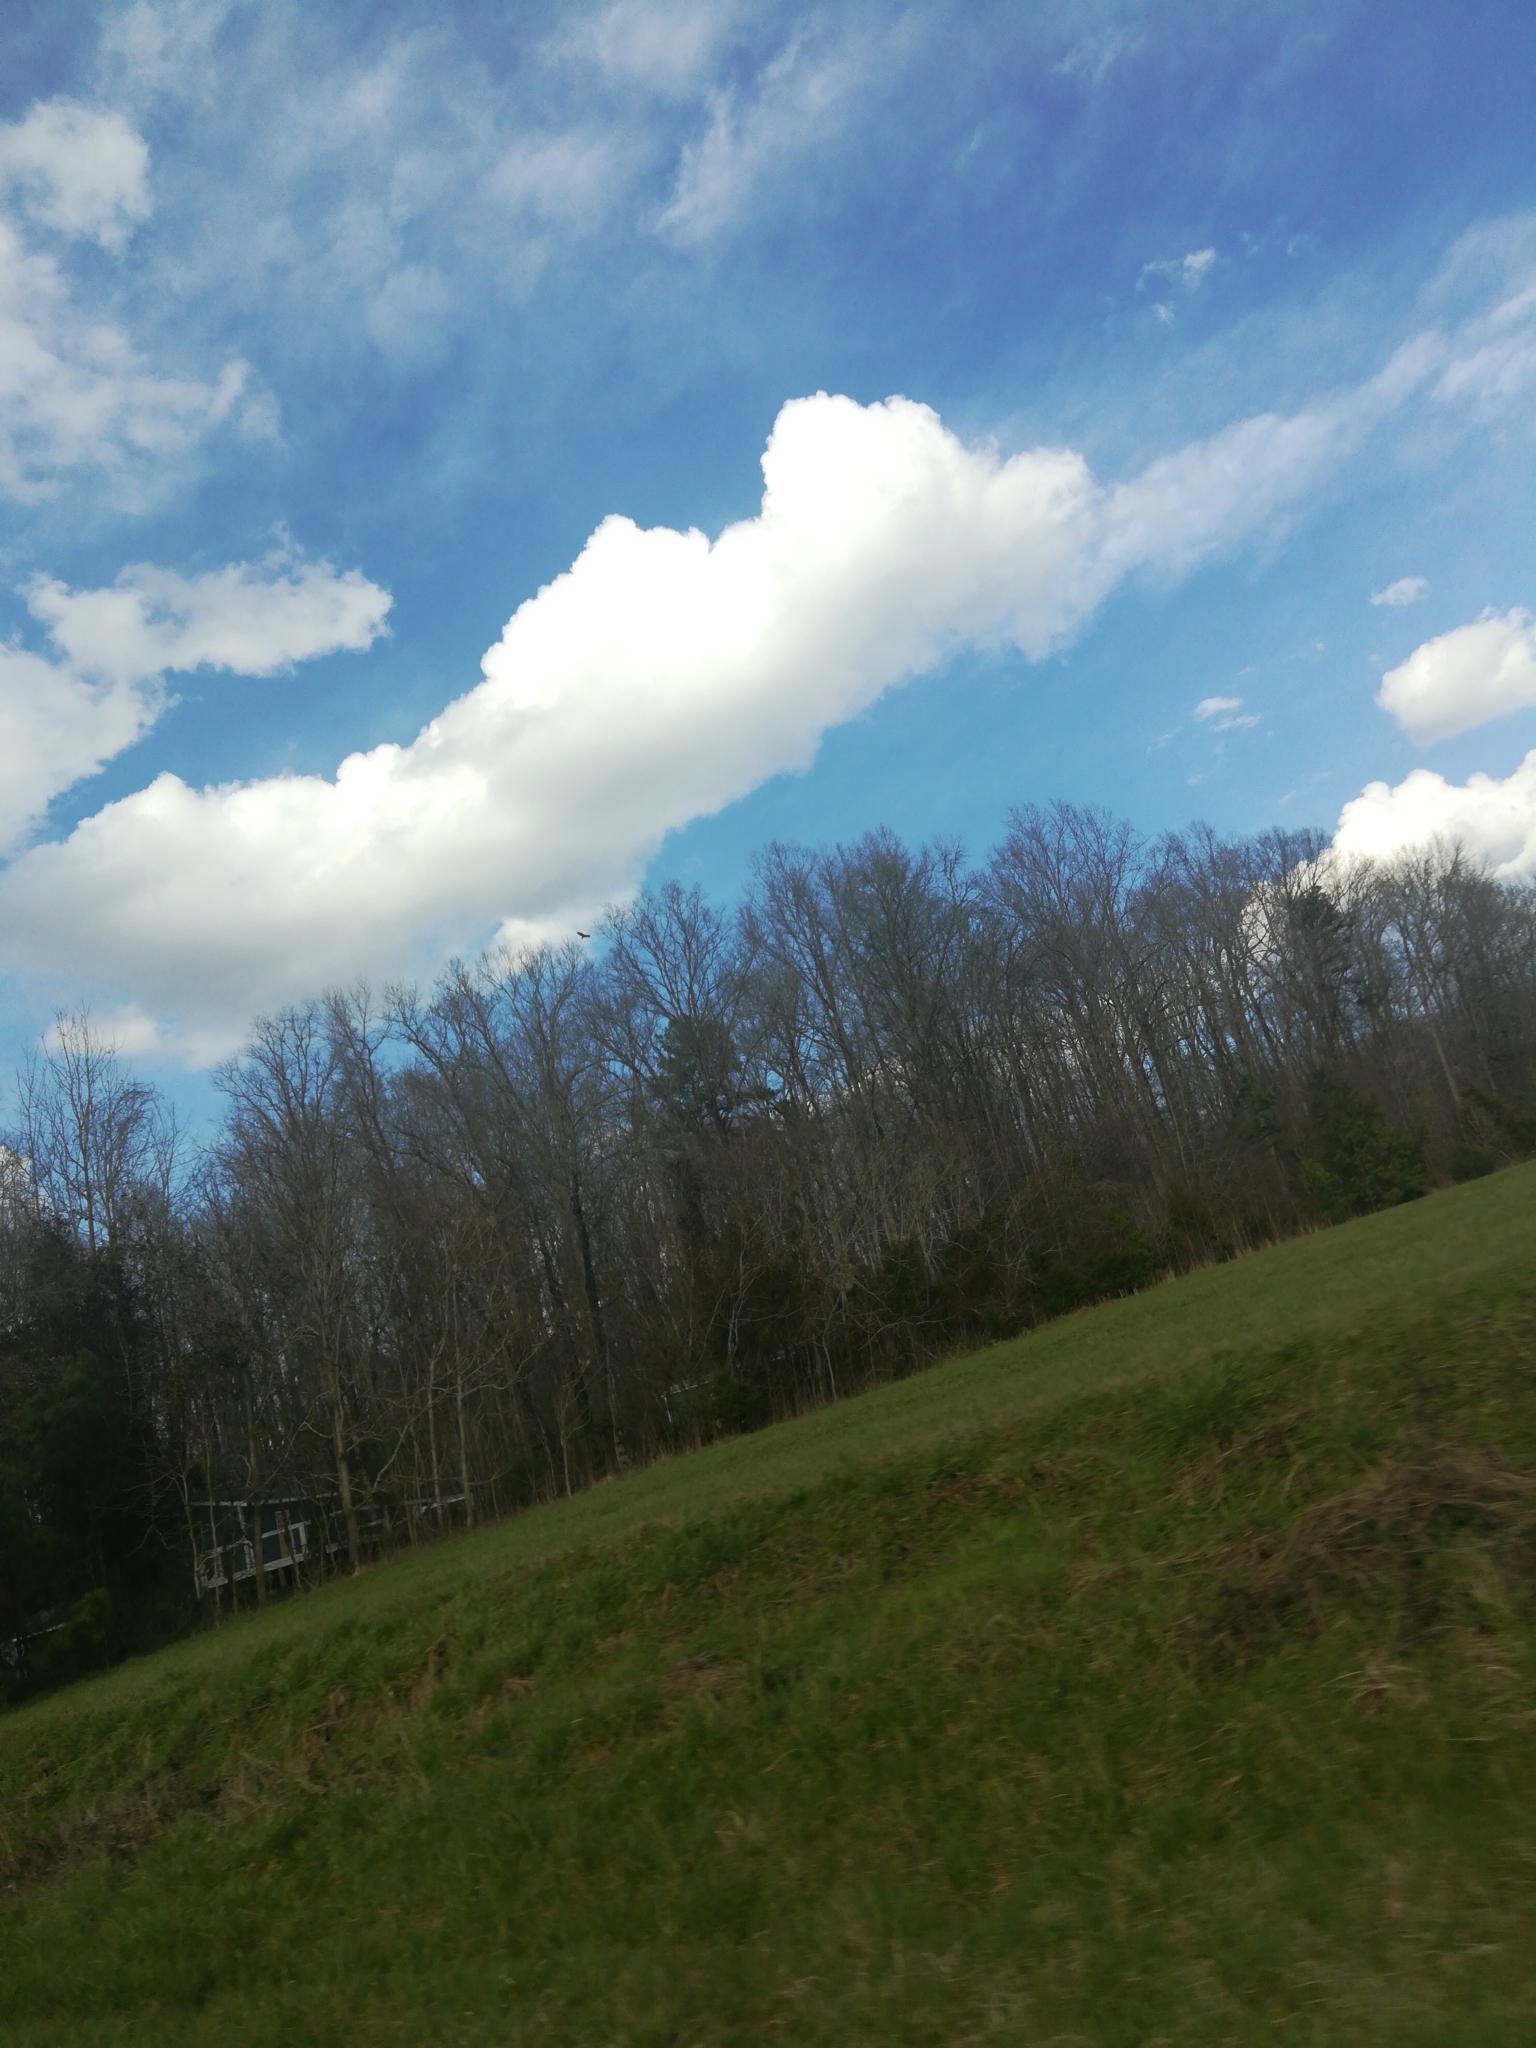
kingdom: Animalia
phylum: Chordata
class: Aves
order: Accipitriformes
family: Cathartidae
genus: Cathartes
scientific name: Cathartes aura
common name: Turkey vulture
